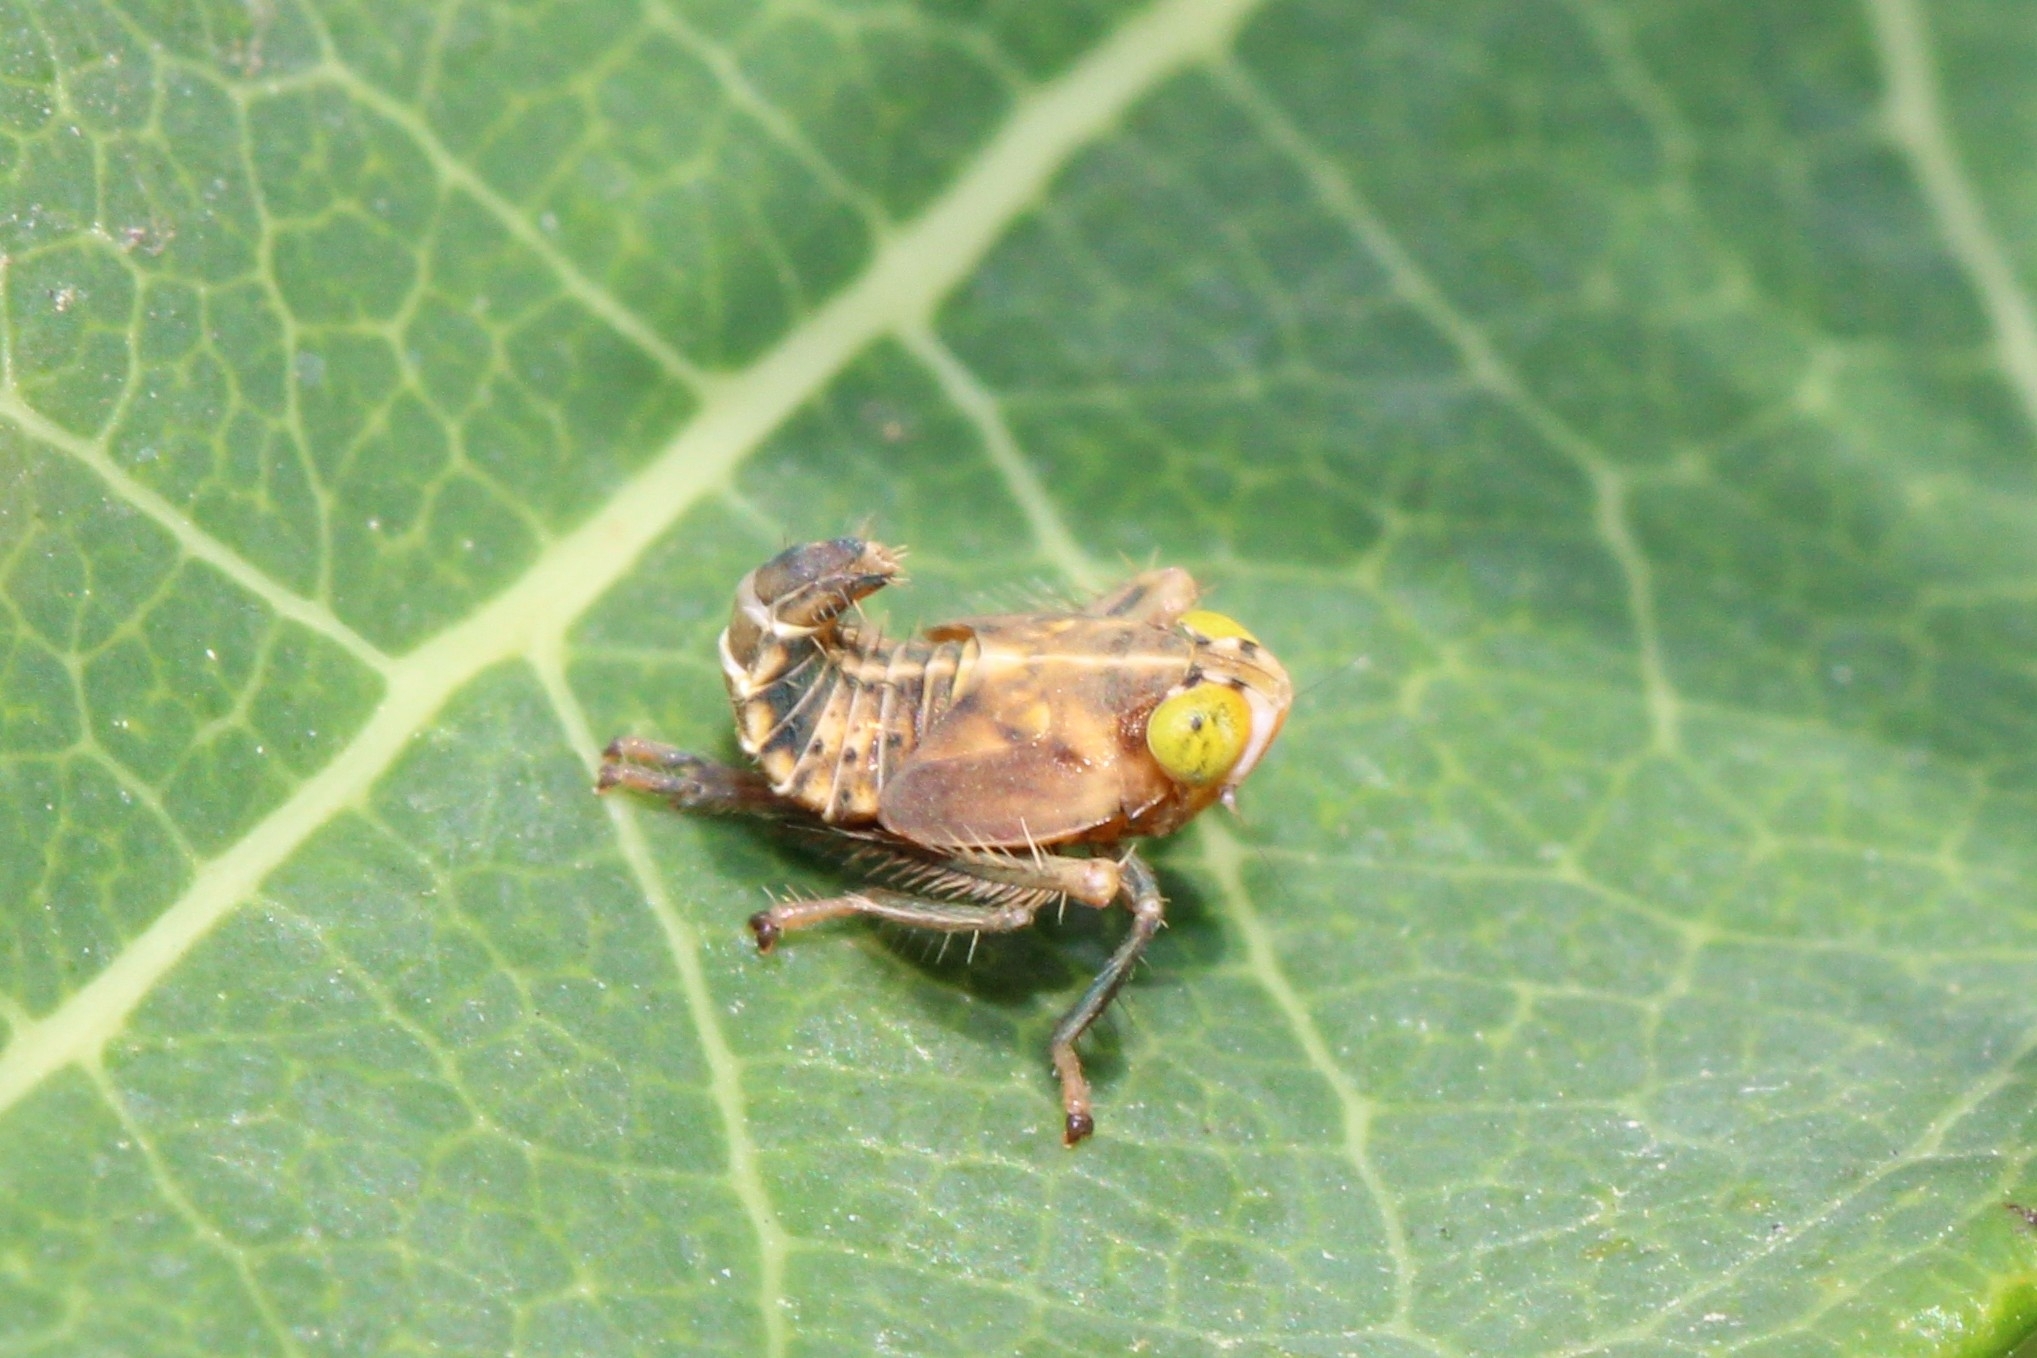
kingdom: Animalia
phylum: Arthropoda
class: Insecta
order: Hemiptera
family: Cicadellidae
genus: Jikradia
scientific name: Jikradia olitoria
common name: Coppery leafhopper
